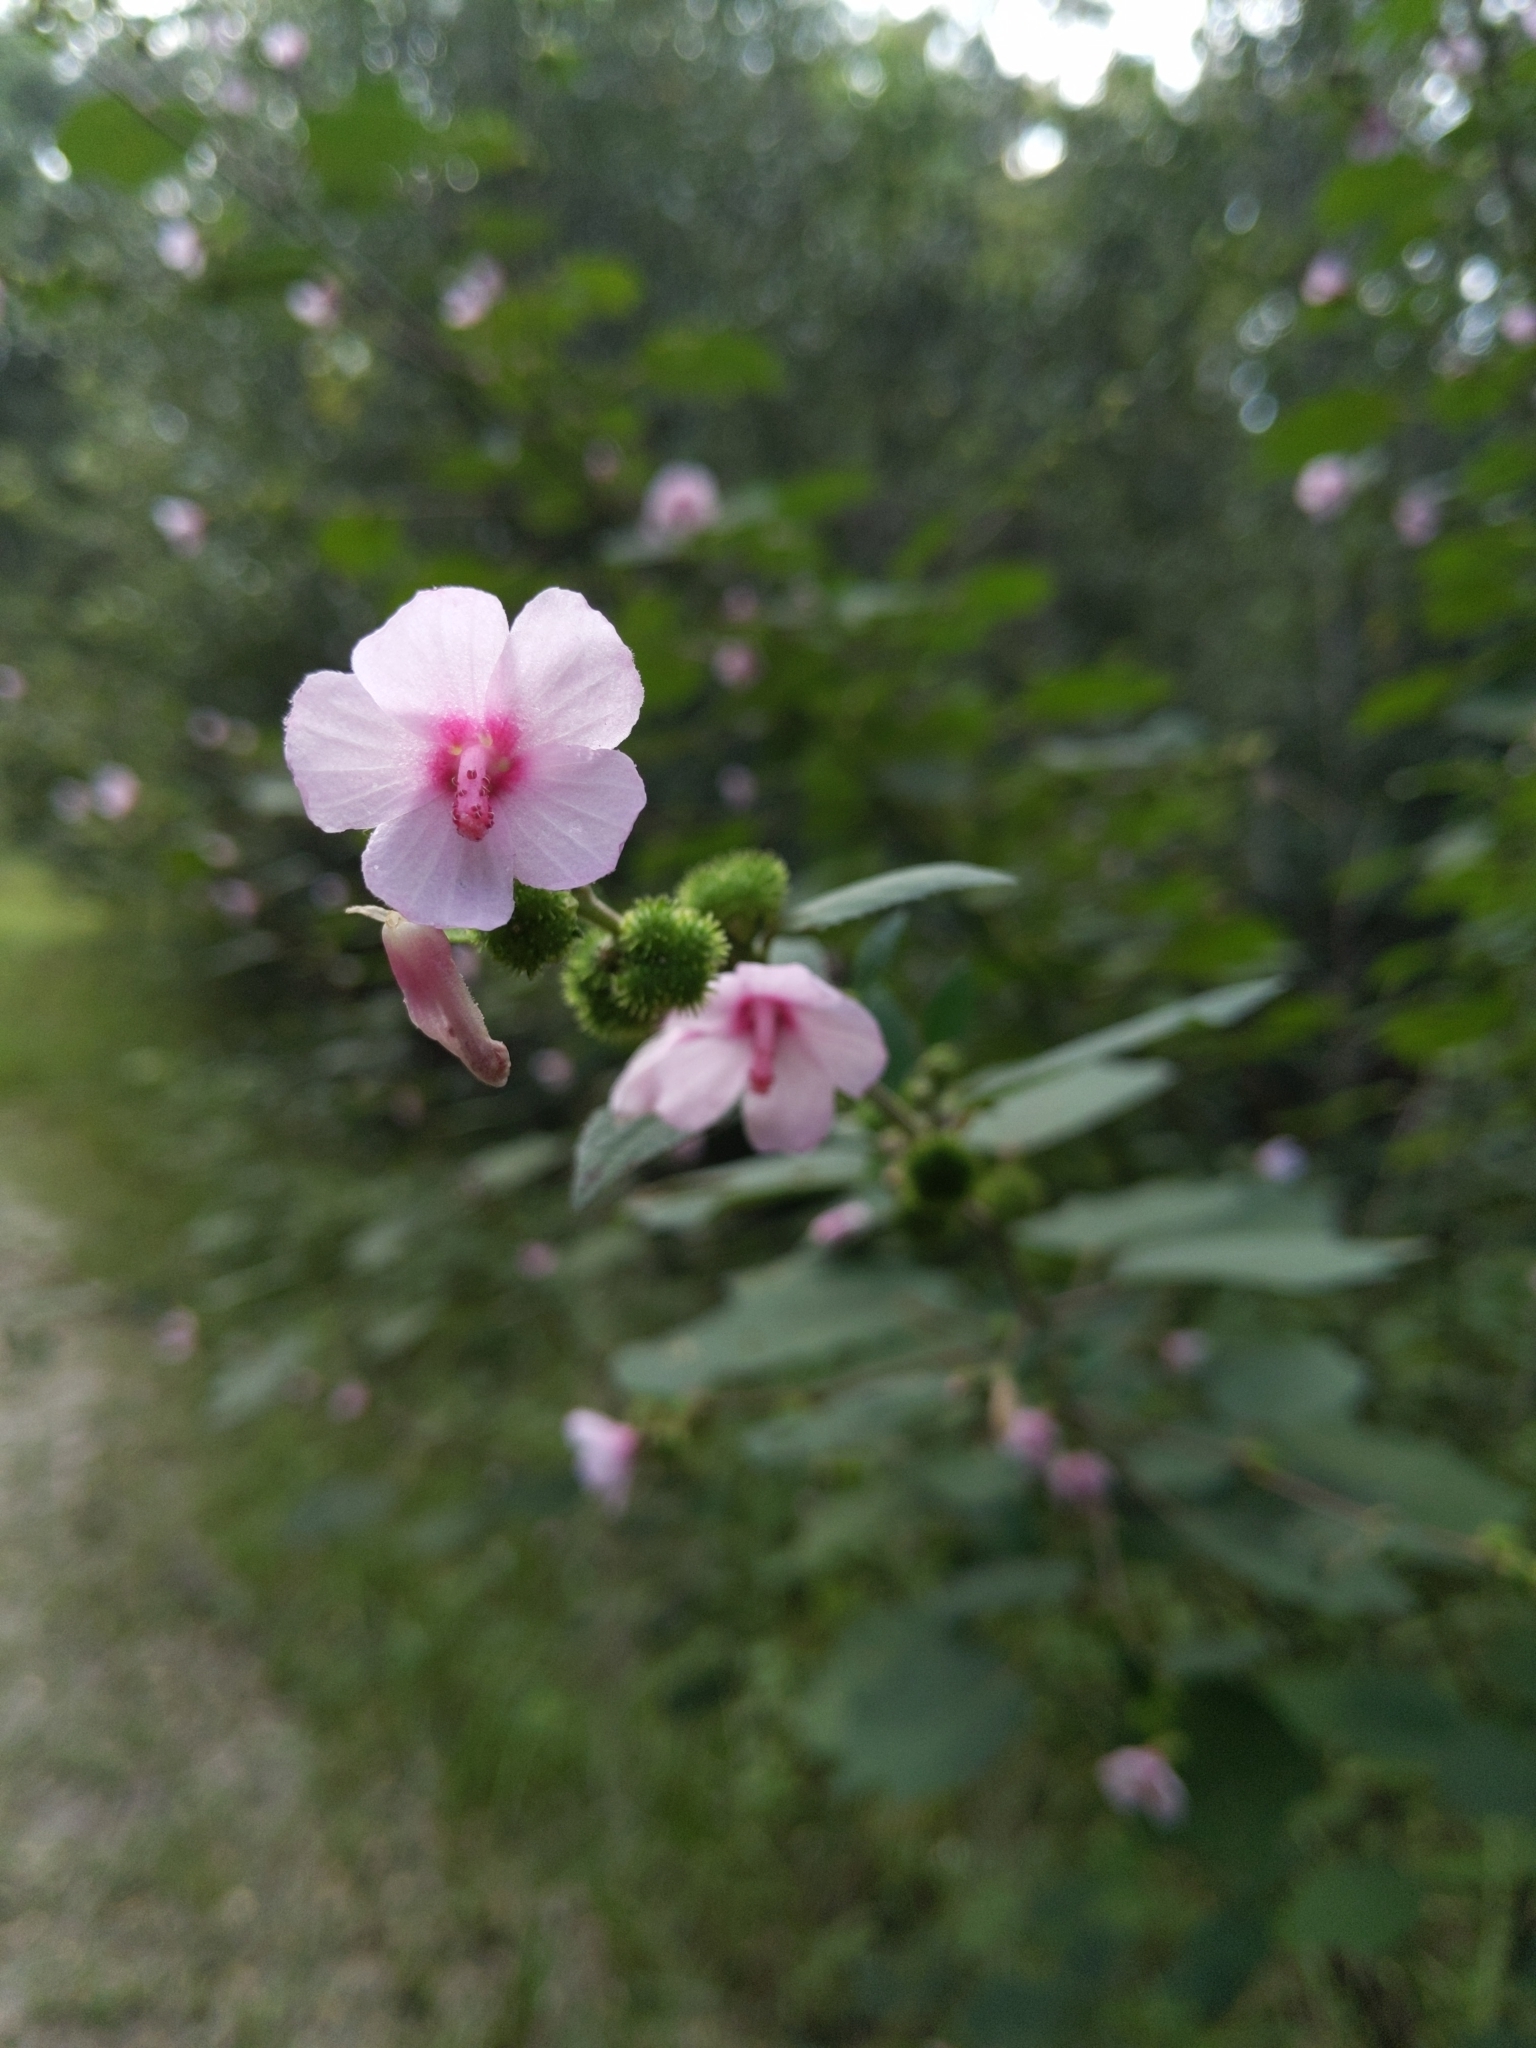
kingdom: Plantae
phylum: Tracheophyta
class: Magnoliopsida
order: Malvales
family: Malvaceae
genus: Urena
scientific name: Urena lobata
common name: Caesarweed
